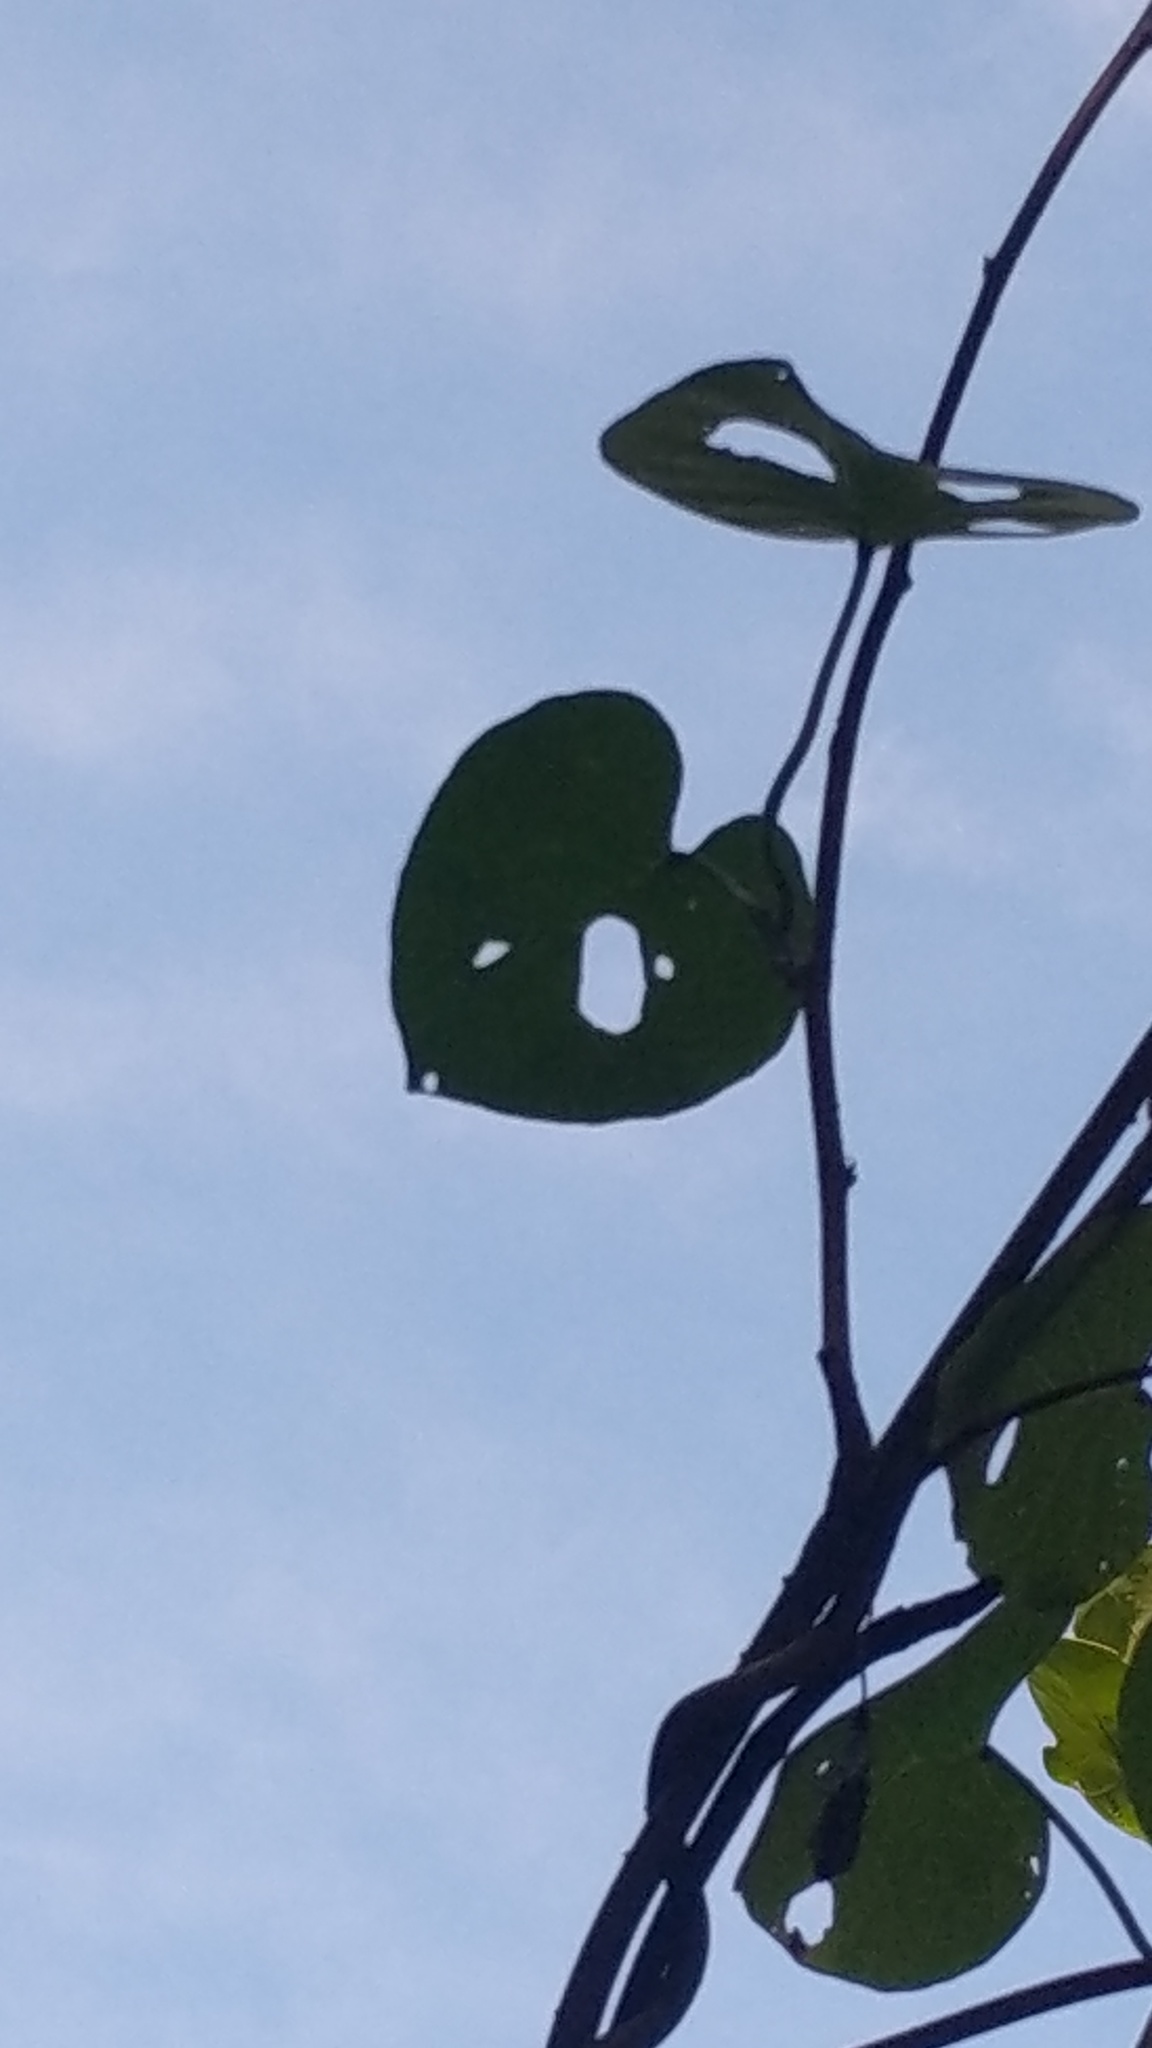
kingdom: Plantae
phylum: Tracheophyta
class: Magnoliopsida
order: Solanales
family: Convolvulaceae
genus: Ipomoea
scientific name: Ipomoea violacea
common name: Beach moonflower
